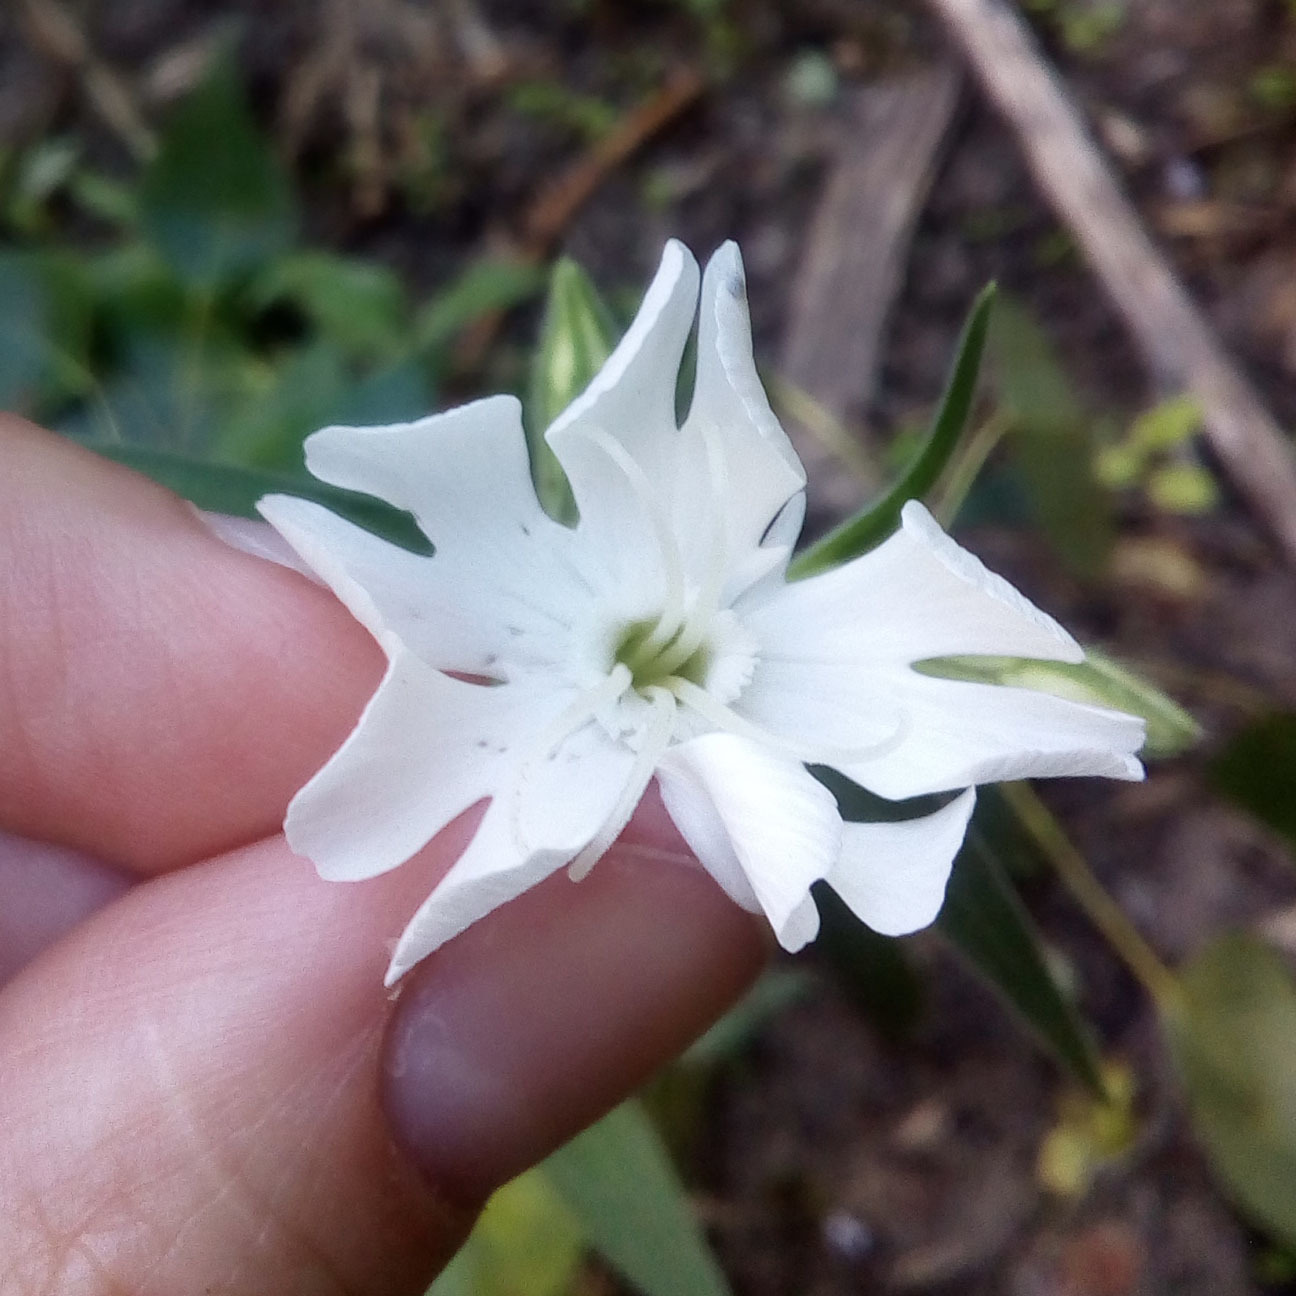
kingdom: Plantae
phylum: Tracheophyta
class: Magnoliopsida
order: Caryophyllales
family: Caryophyllaceae
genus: Silene
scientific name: Silene latifolia
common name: White campion
